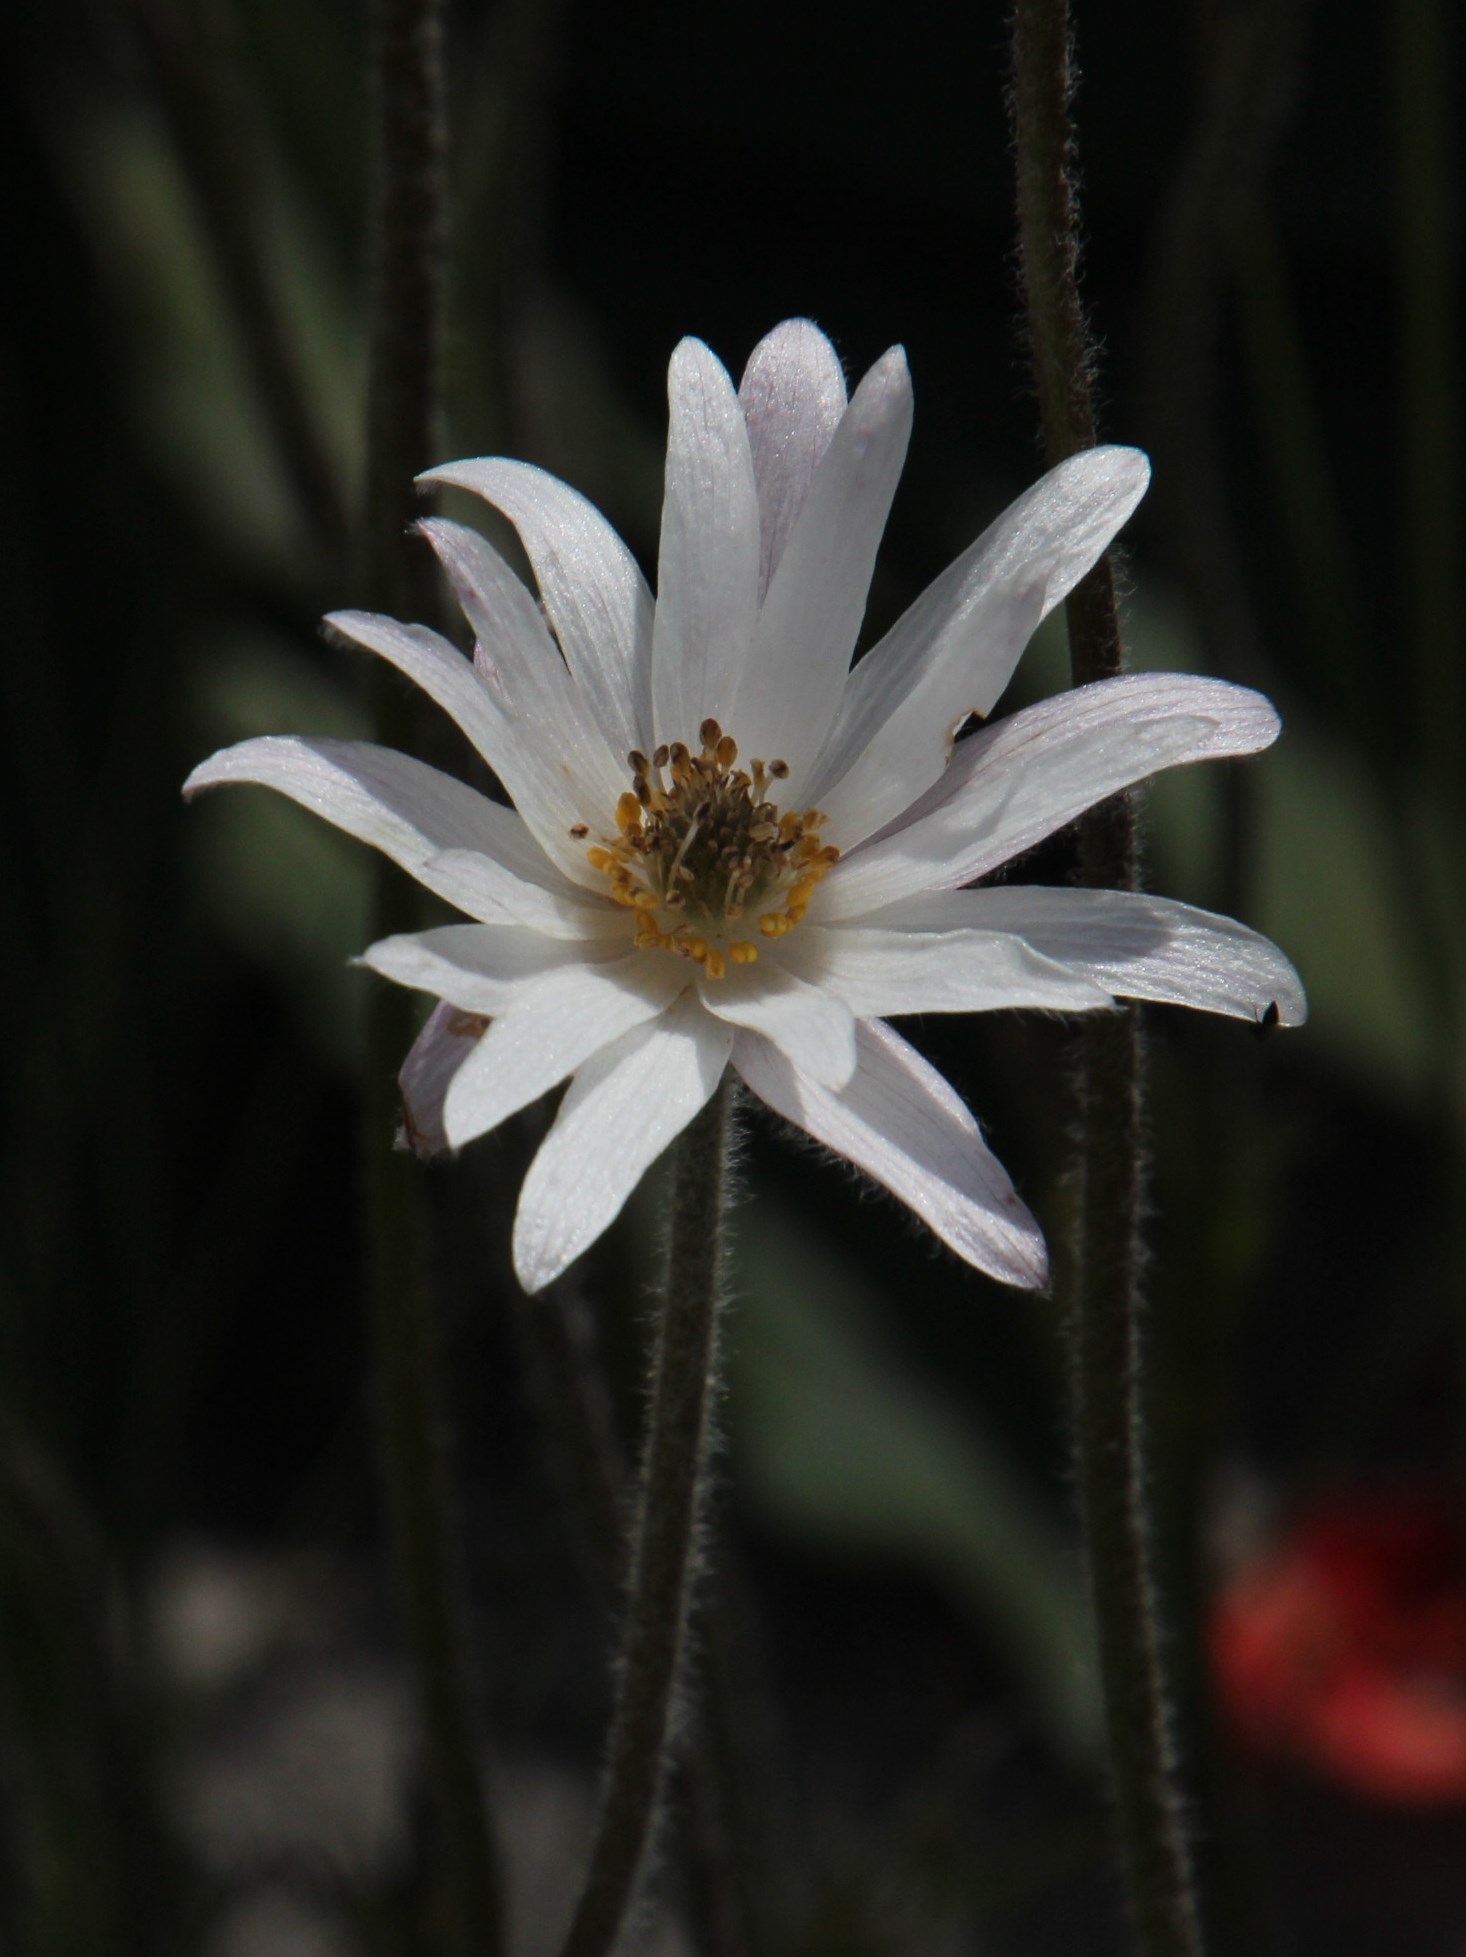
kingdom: Plantae
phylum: Tracheophyta
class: Magnoliopsida
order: Ranunculales
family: Ranunculaceae
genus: Knowltonia
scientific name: Knowltonia tenuifolia
